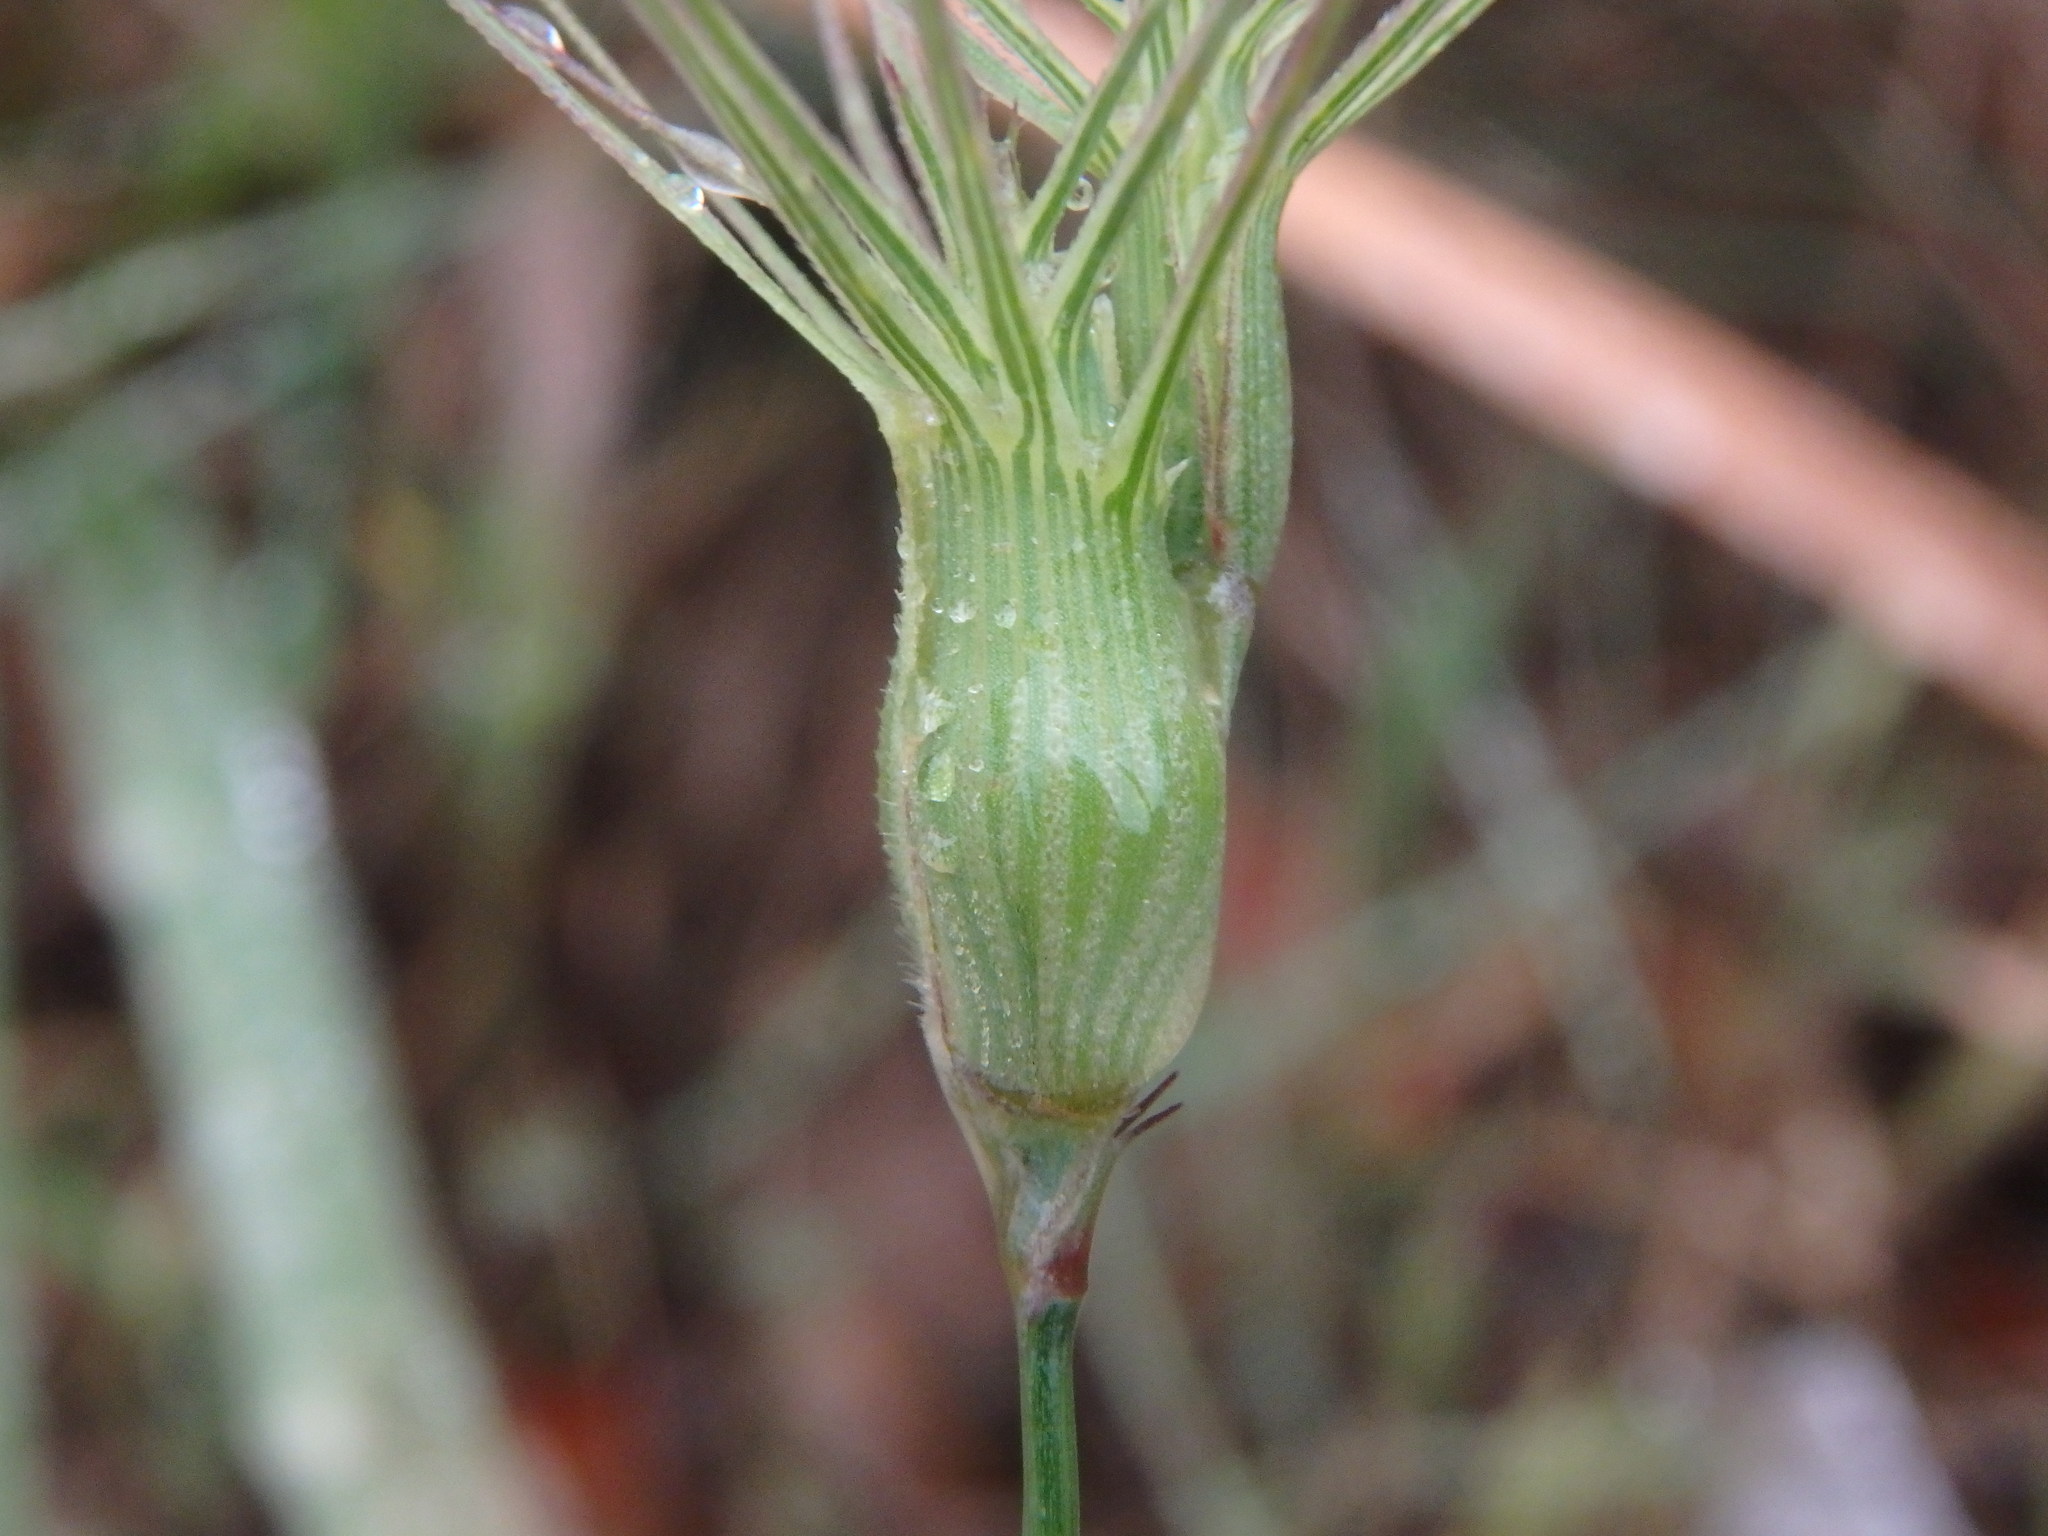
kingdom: Plantae
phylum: Tracheophyta
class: Liliopsida
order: Poales
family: Poaceae
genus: Aegilops
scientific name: Aegilops geniculata
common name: Ovate goat grass
